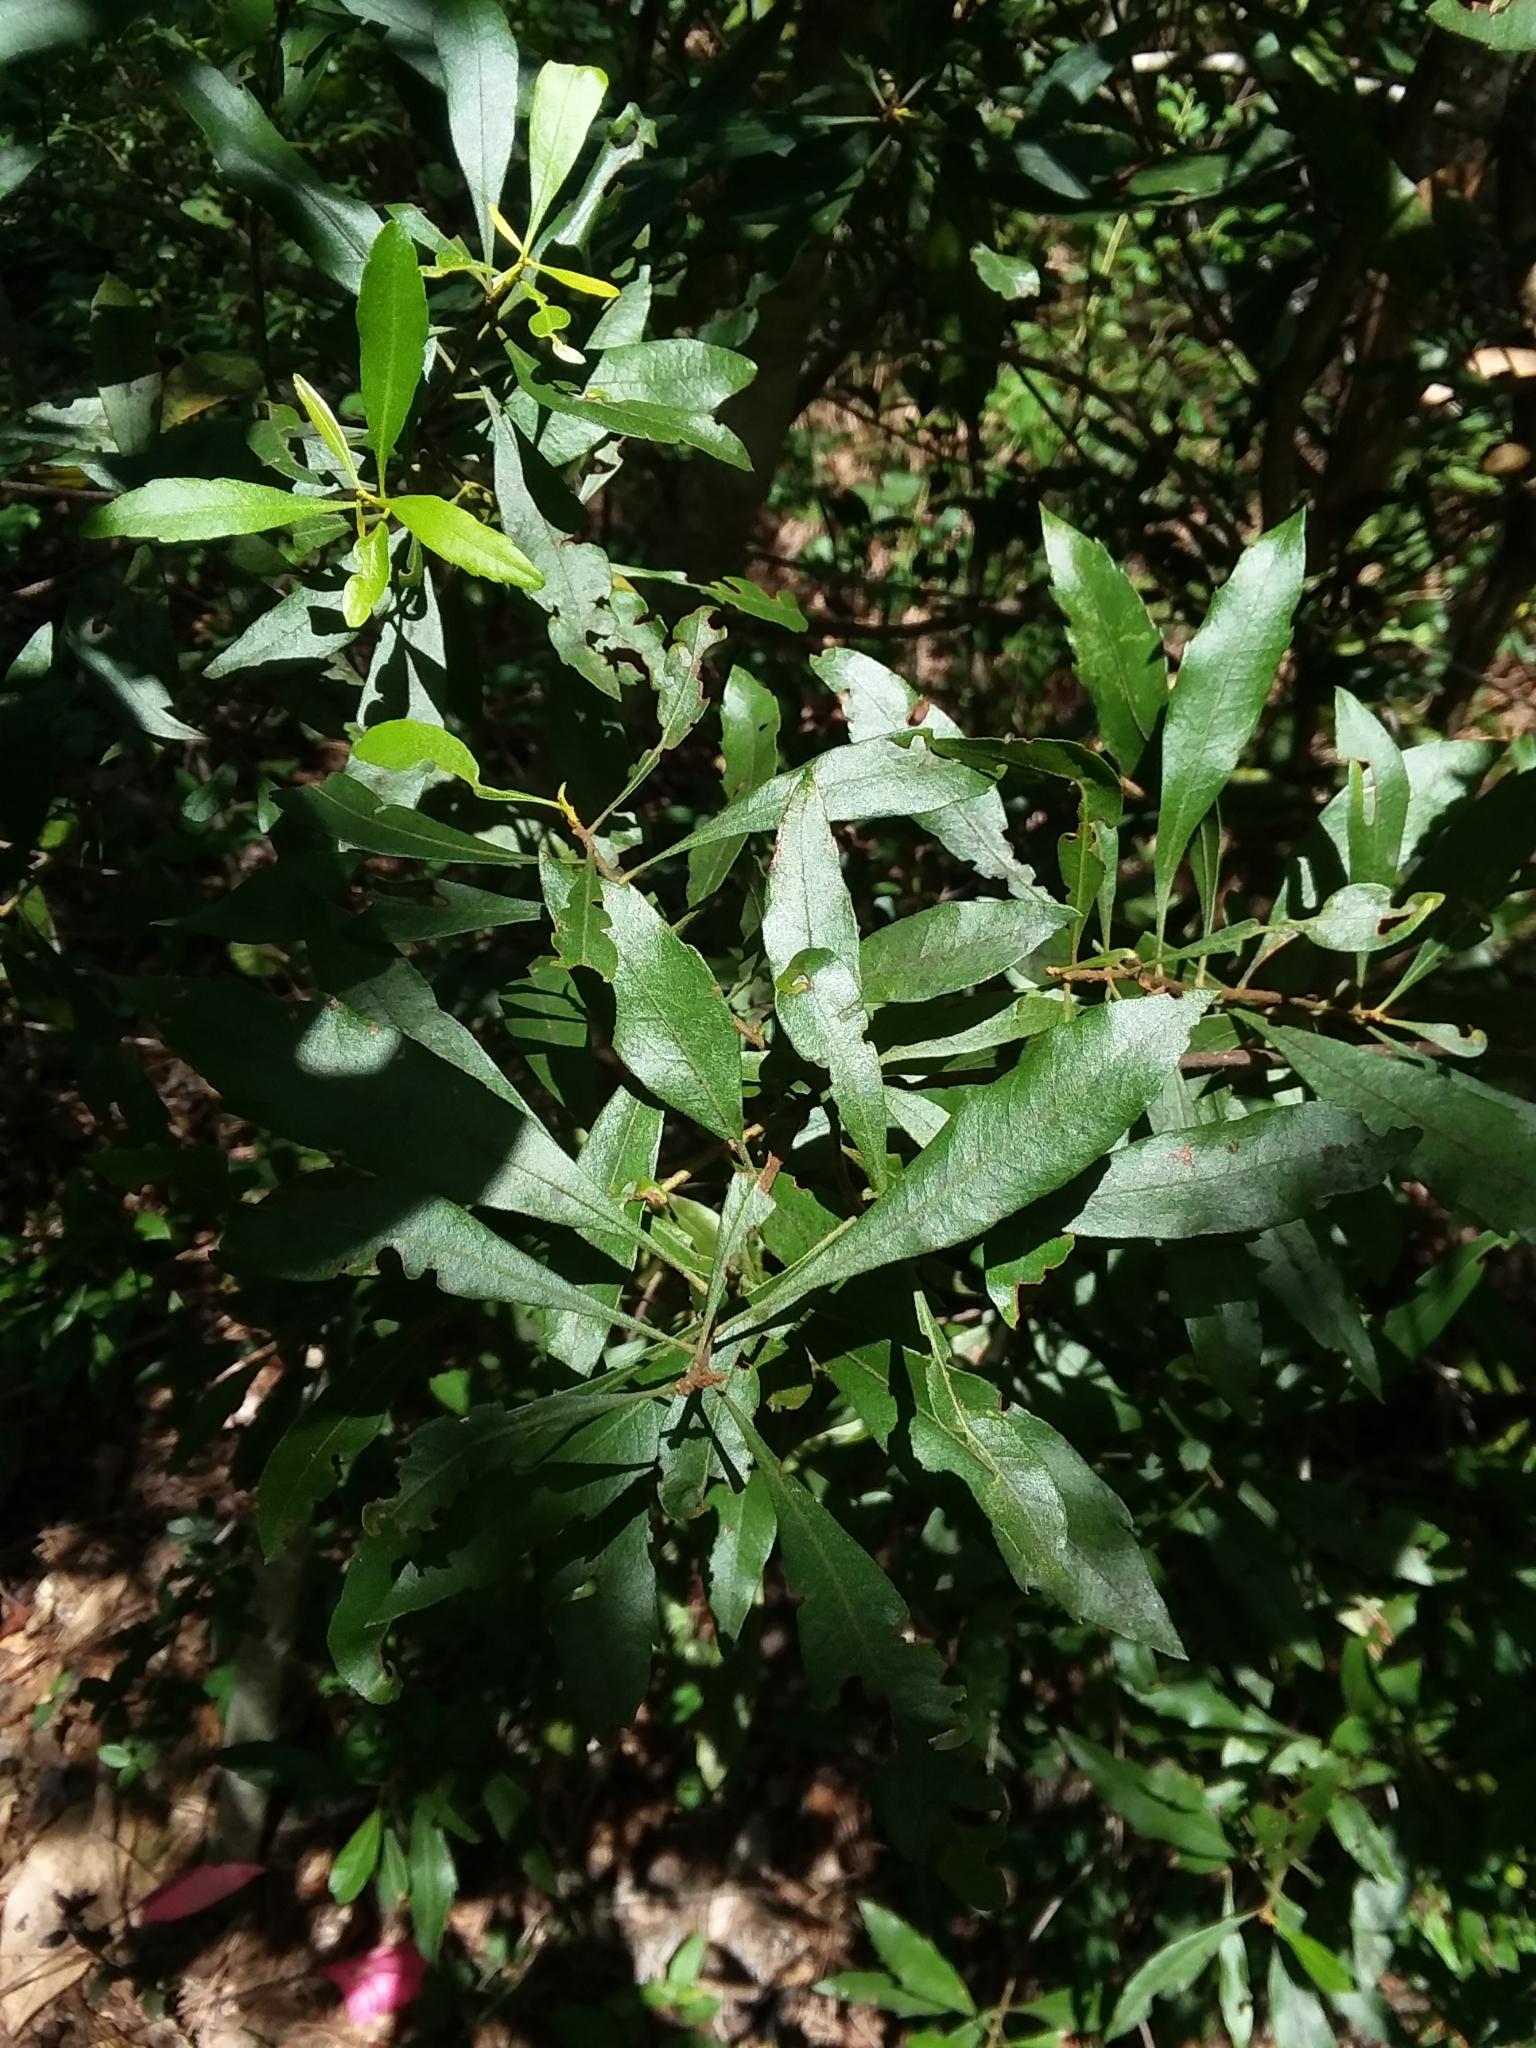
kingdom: Plantae
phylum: Tracheophyta
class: Magnoliopsida
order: Fagales
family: Myricaceae
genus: Morella
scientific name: Morella cerifera
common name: Wax myrtle
